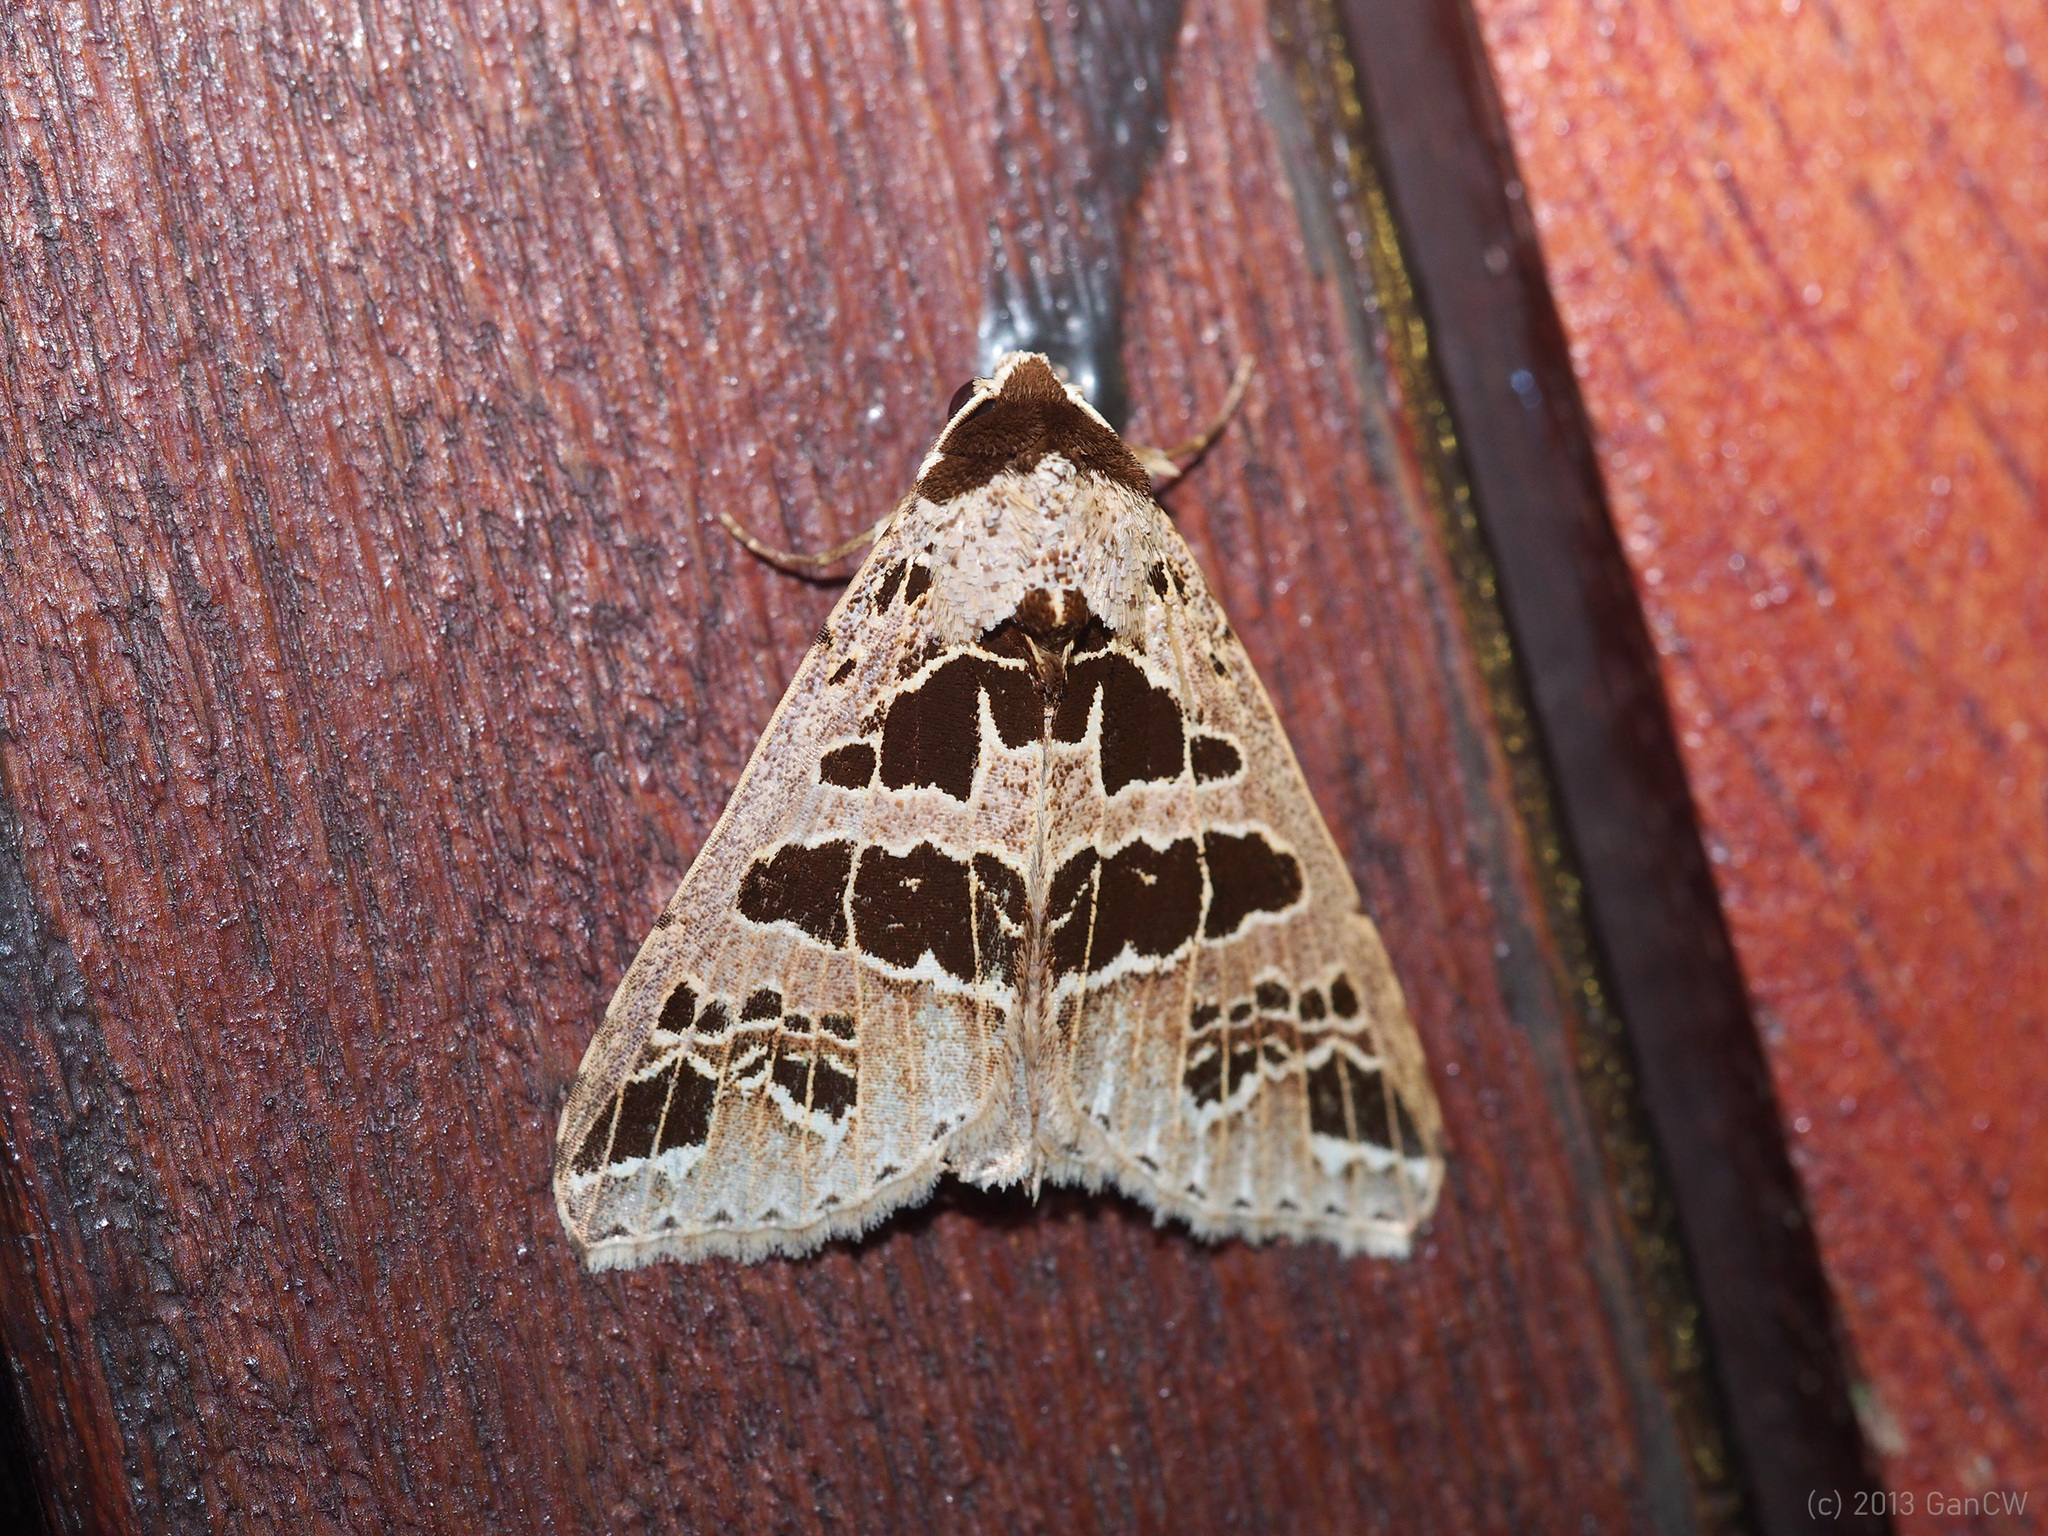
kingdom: Animalia
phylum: Arthropoda
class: Insecta
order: Lepidoptera
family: Erebidae
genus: Anoba
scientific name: Anoba rigida
